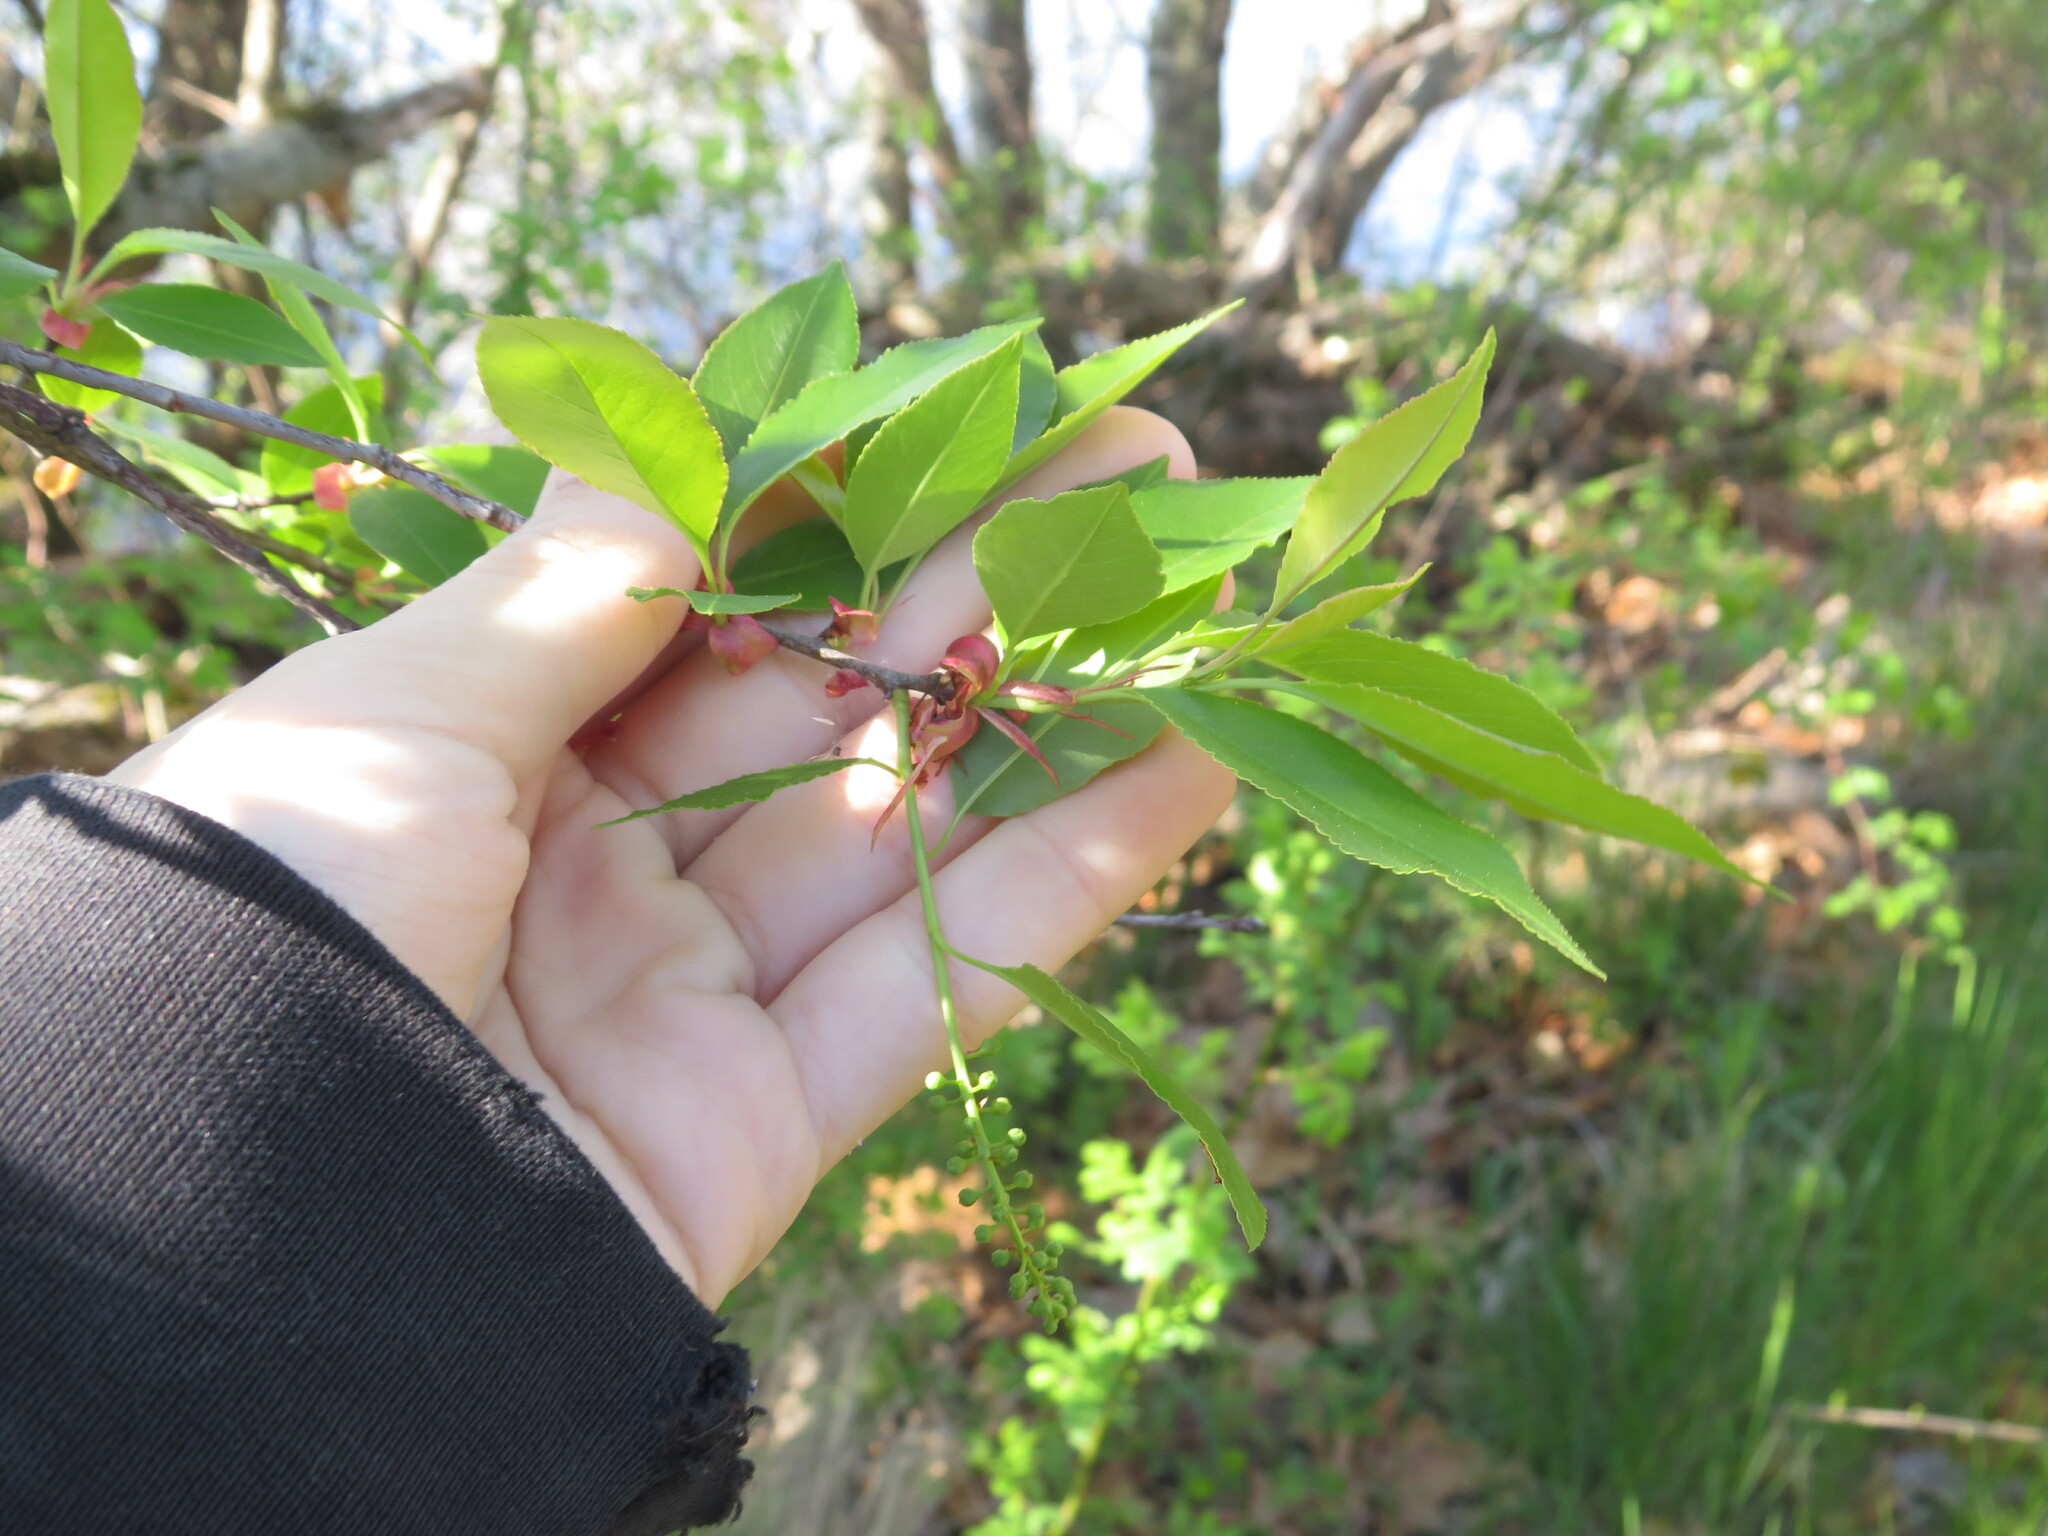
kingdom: Plantae
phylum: Tracheophyta
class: Magnoliopsida
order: Rosales
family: Rosaceae
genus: Prunus
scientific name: Prunus serotina
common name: Black cherry
